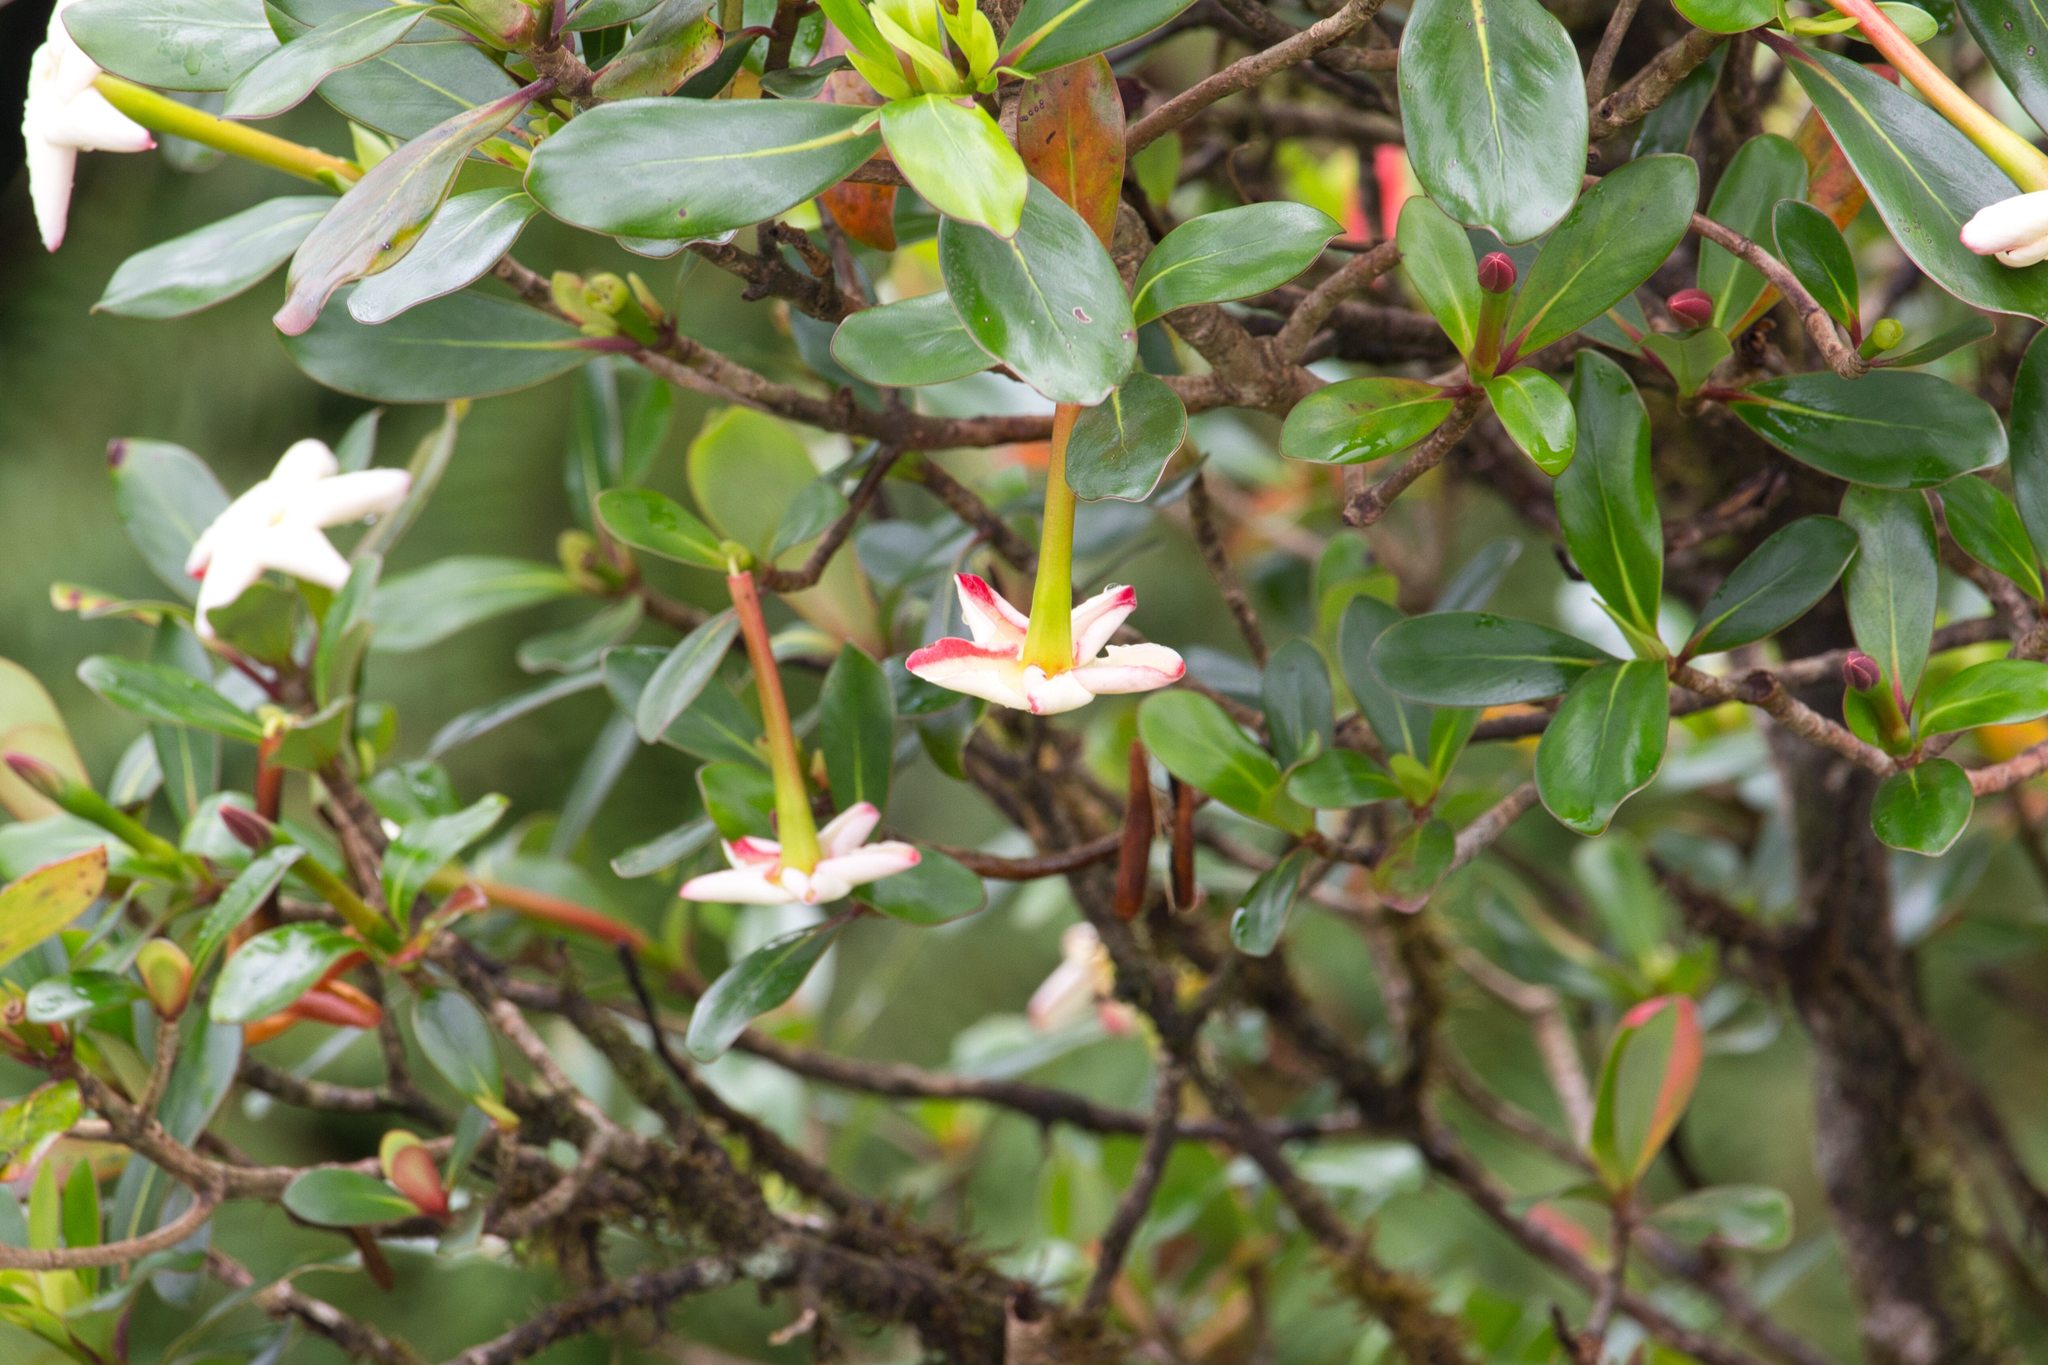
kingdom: Plantae
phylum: Tracheophyta
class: Magnoliopsida
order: Gentianales
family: Rubiaceae
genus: Cosmibuena
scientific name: Cosmibuena valerii
